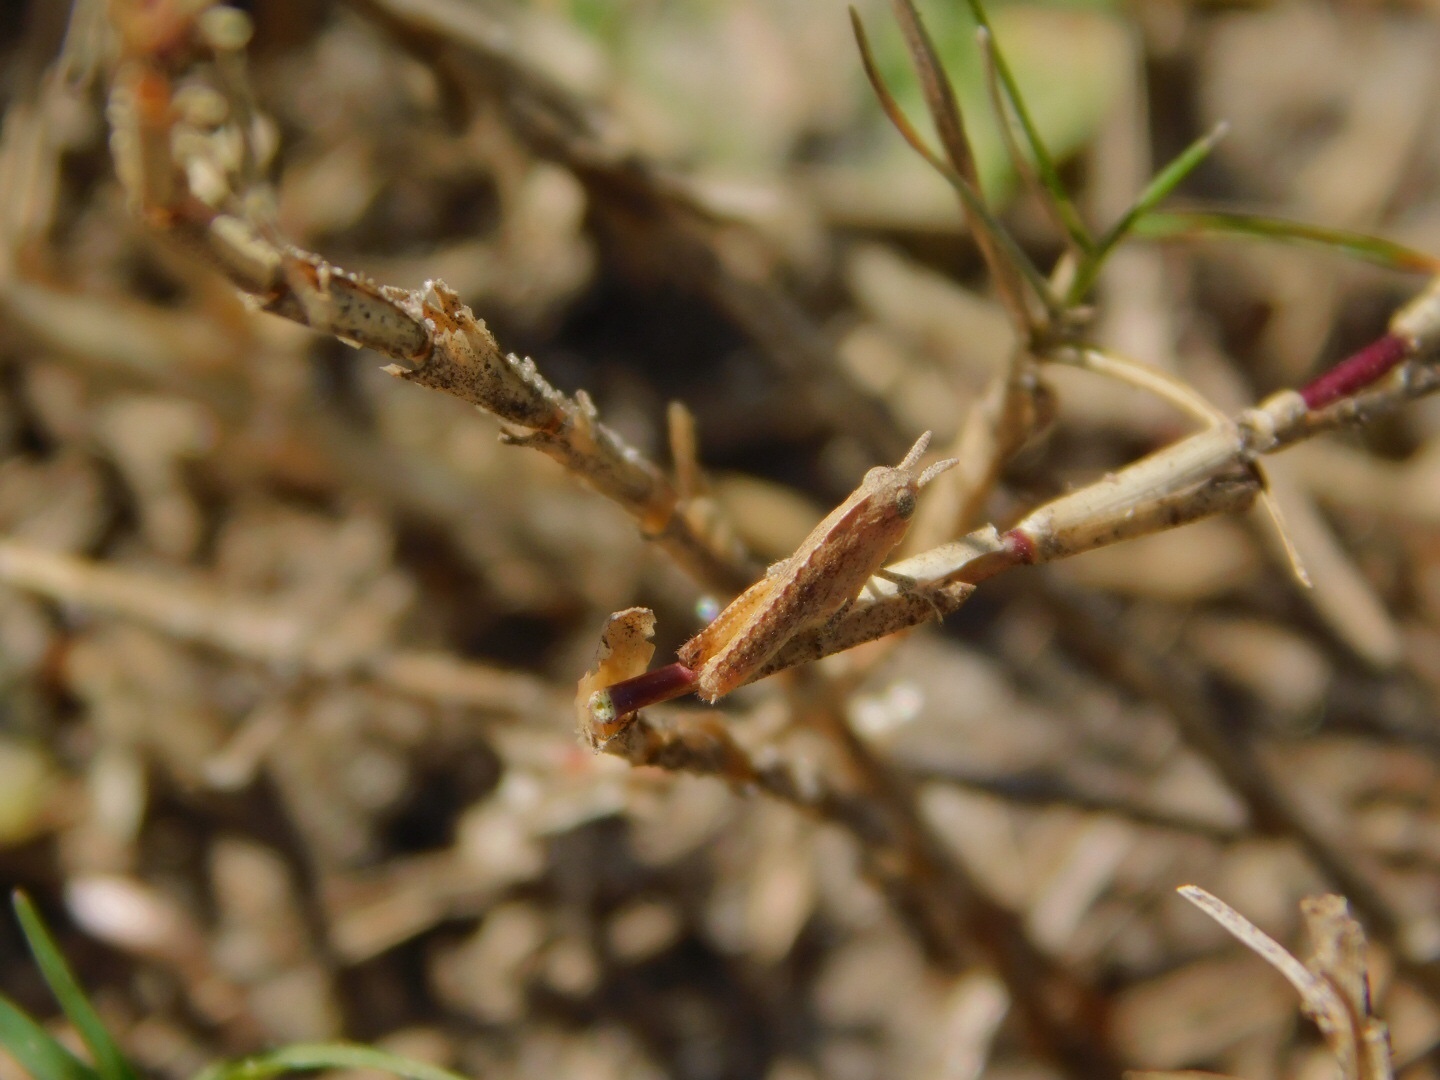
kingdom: Animalia
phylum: Arthropoda
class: Insecta
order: Orthoptera
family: Acrididae
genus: Chortophaga
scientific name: Chortophaga australior
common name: Southern green-striped grasshopper
